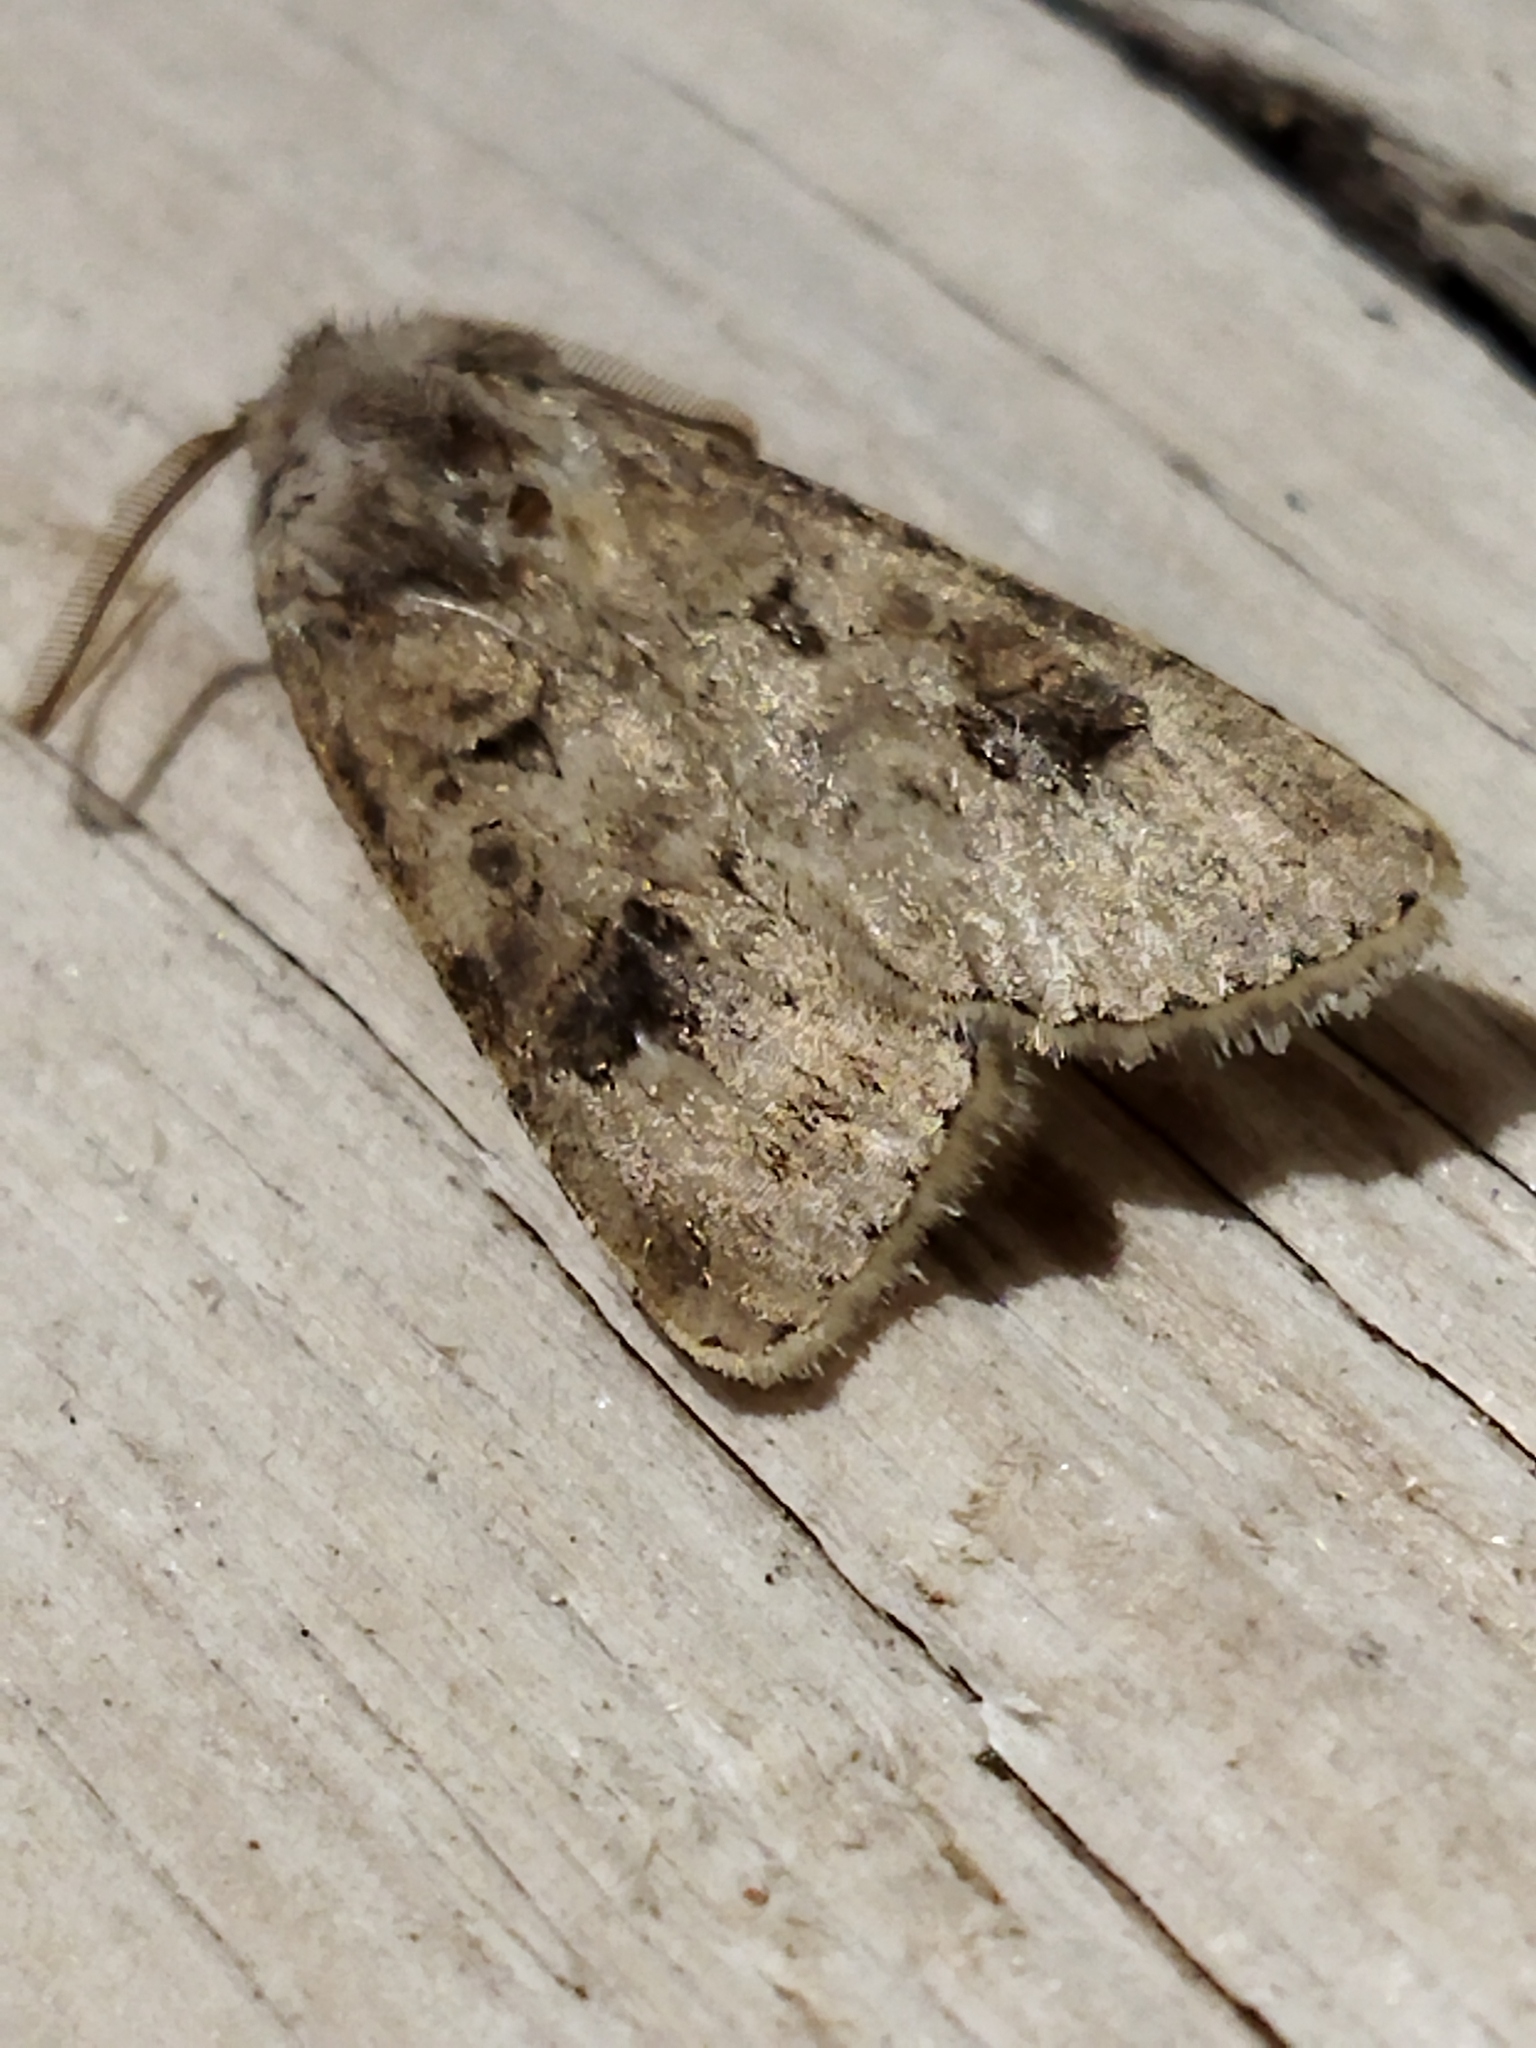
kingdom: Animalia
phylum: Arthropoda
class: Insecta
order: Lepidoptera
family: Noctuidae
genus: Agrotis
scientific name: Agrotis bigramma
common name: Great dart
